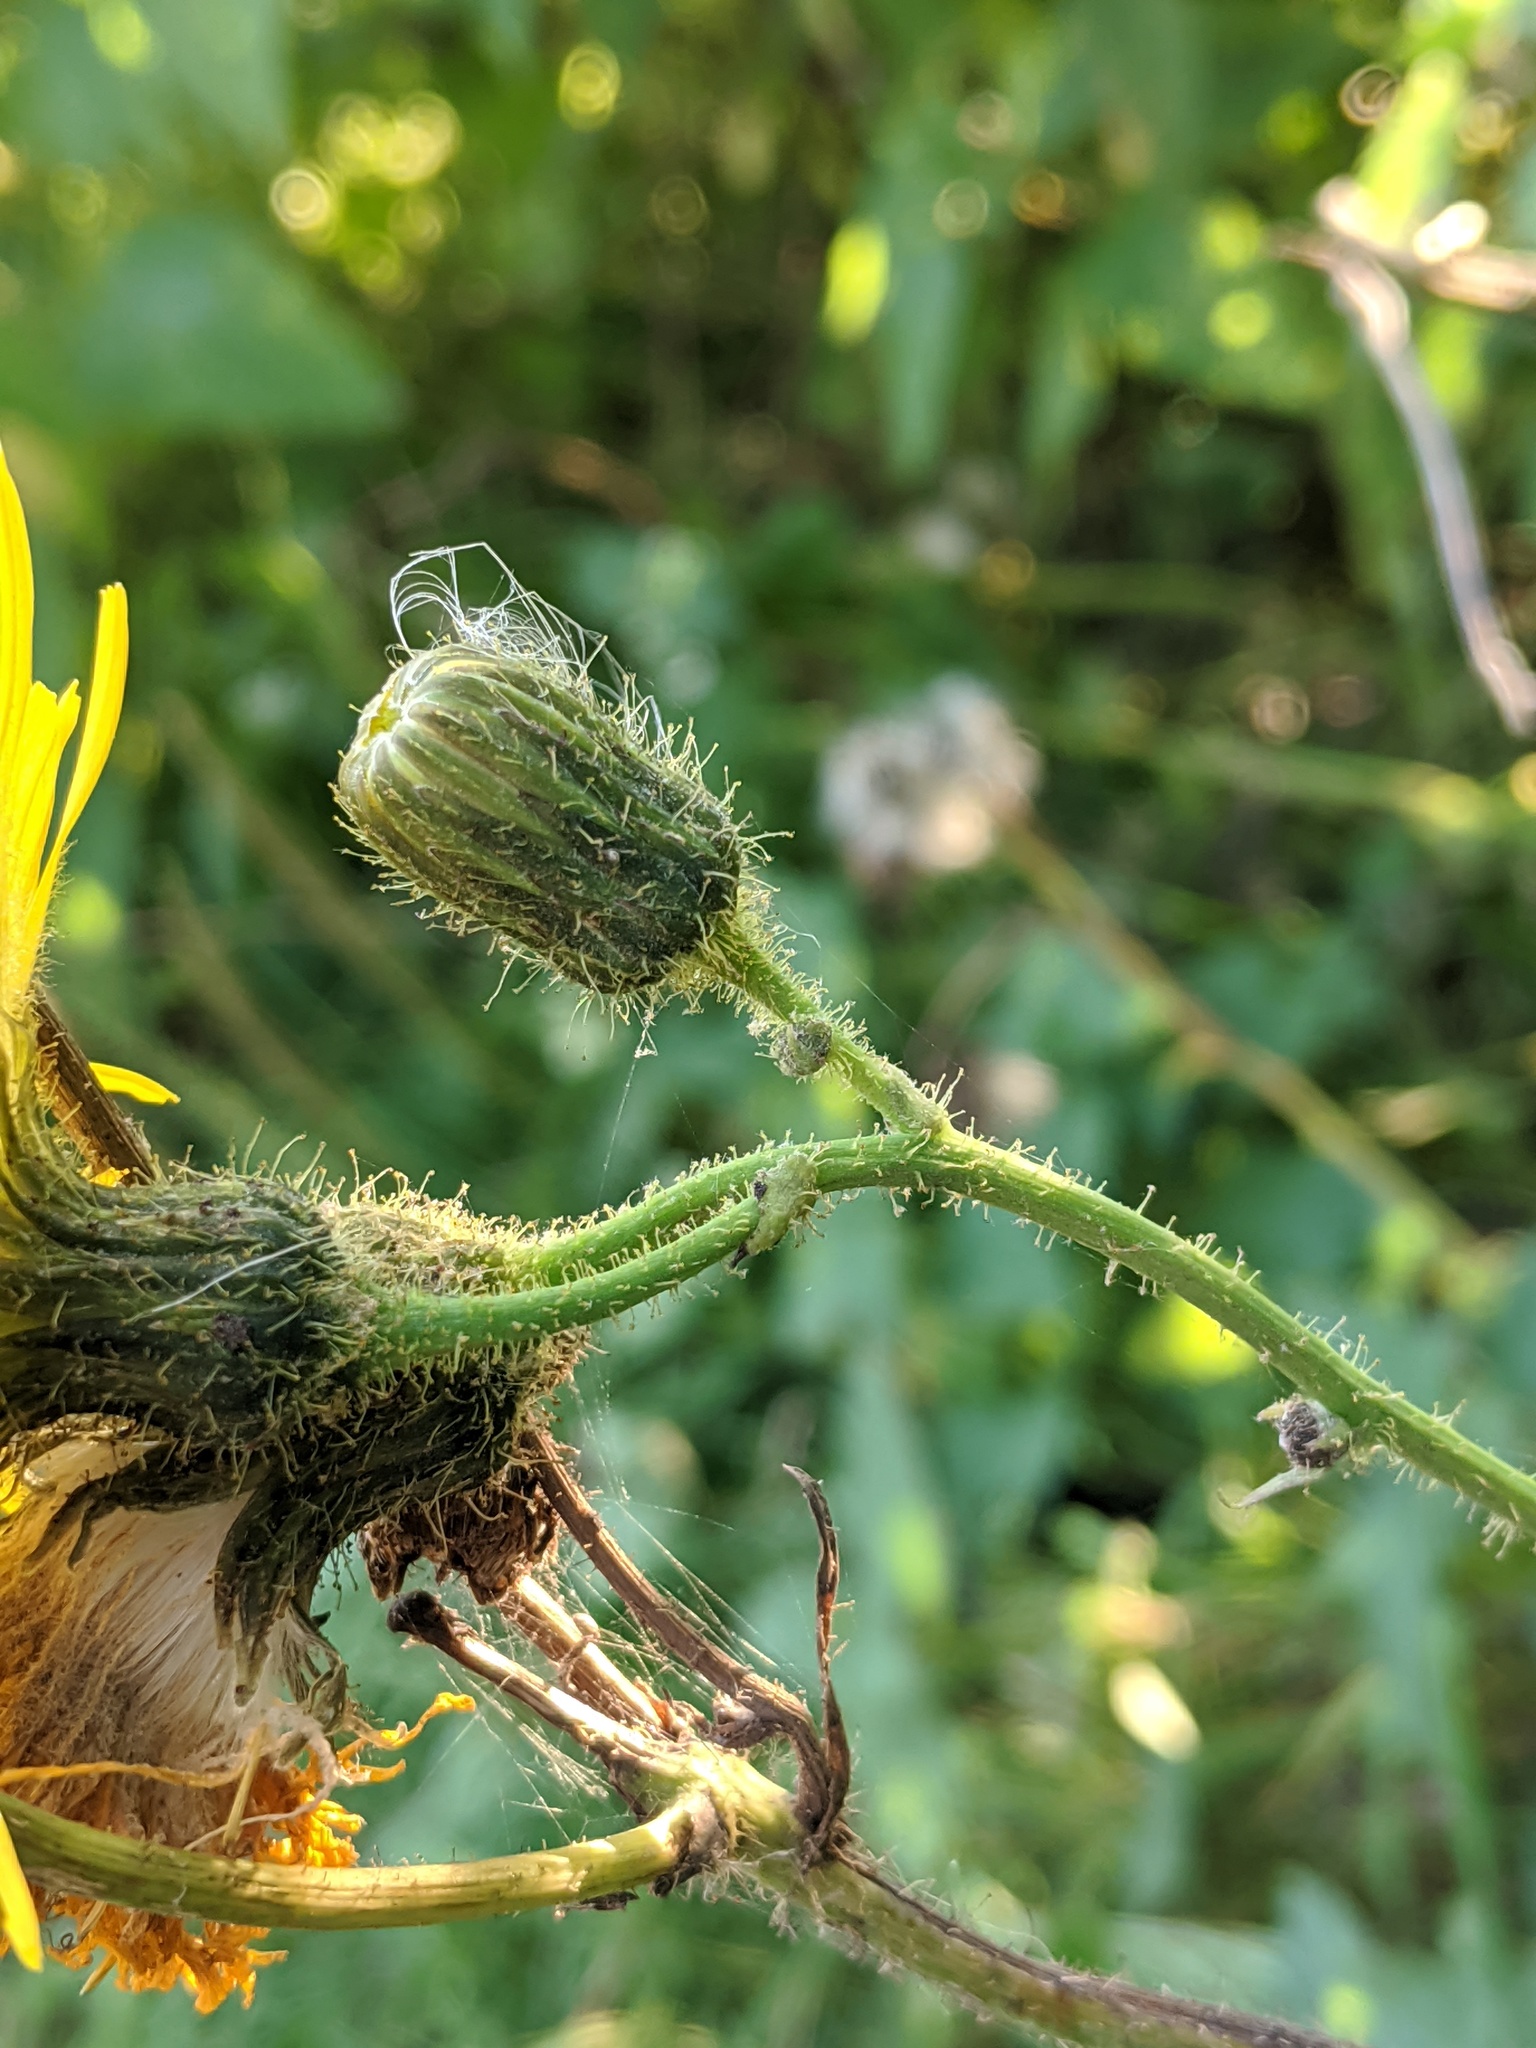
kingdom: Plantae
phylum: Tracheophyta
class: Magnoliopsida
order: Asterales
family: Asteraceae
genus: Sonchus
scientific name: Sonchus arvensis
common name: Perennial sow-thistle
